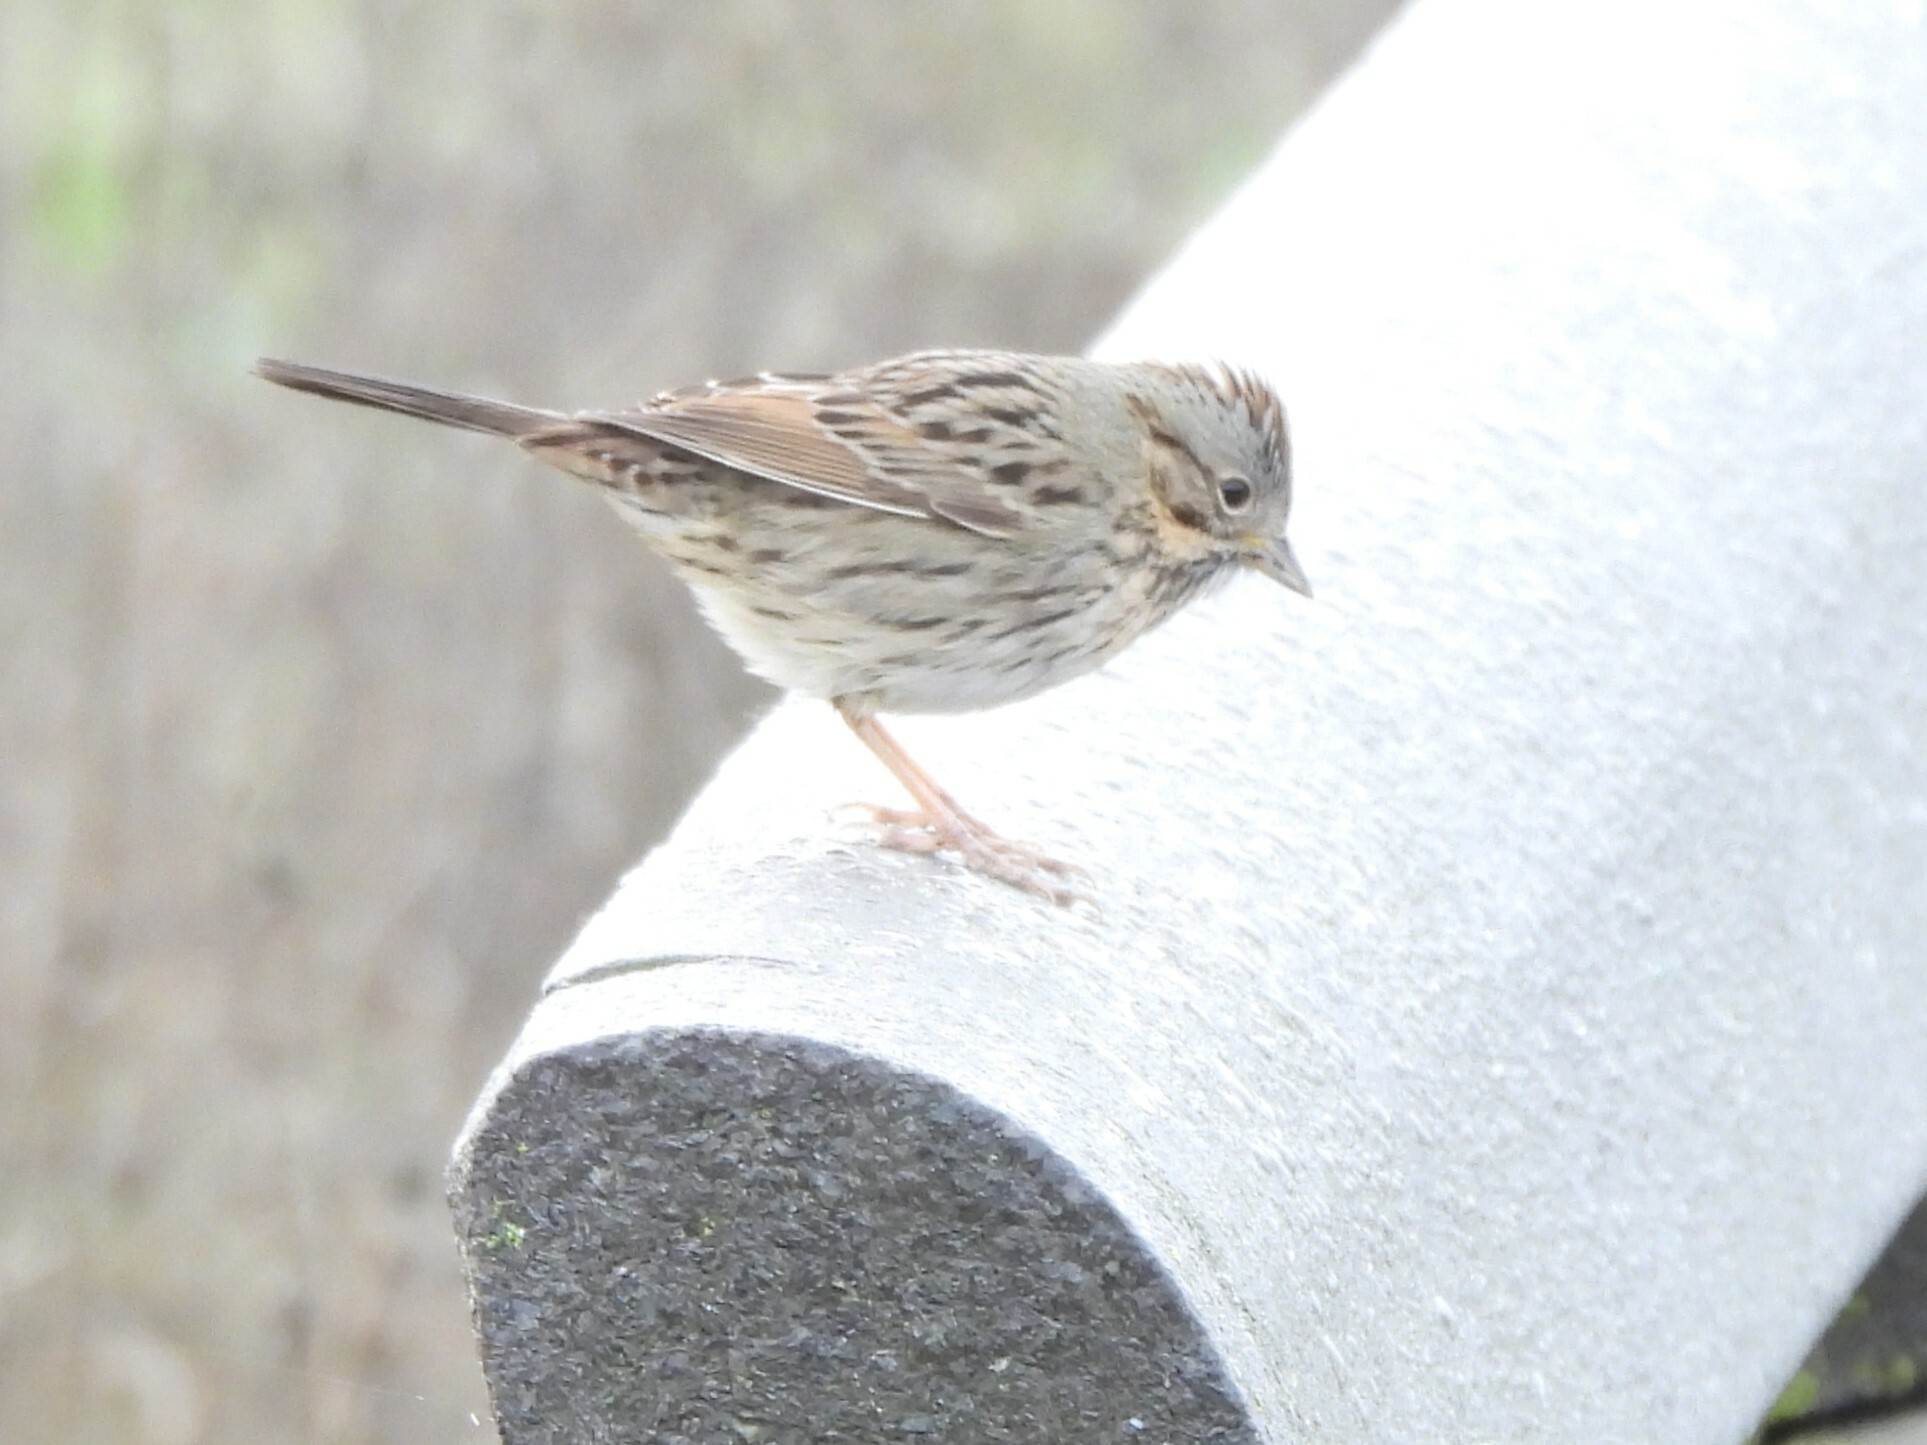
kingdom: Animalia
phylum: Chordata
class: Aves
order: Passeriformes
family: Passerellidae
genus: Melospiza
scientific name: Melospiza lincolnii
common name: Lincoln's sparrow
